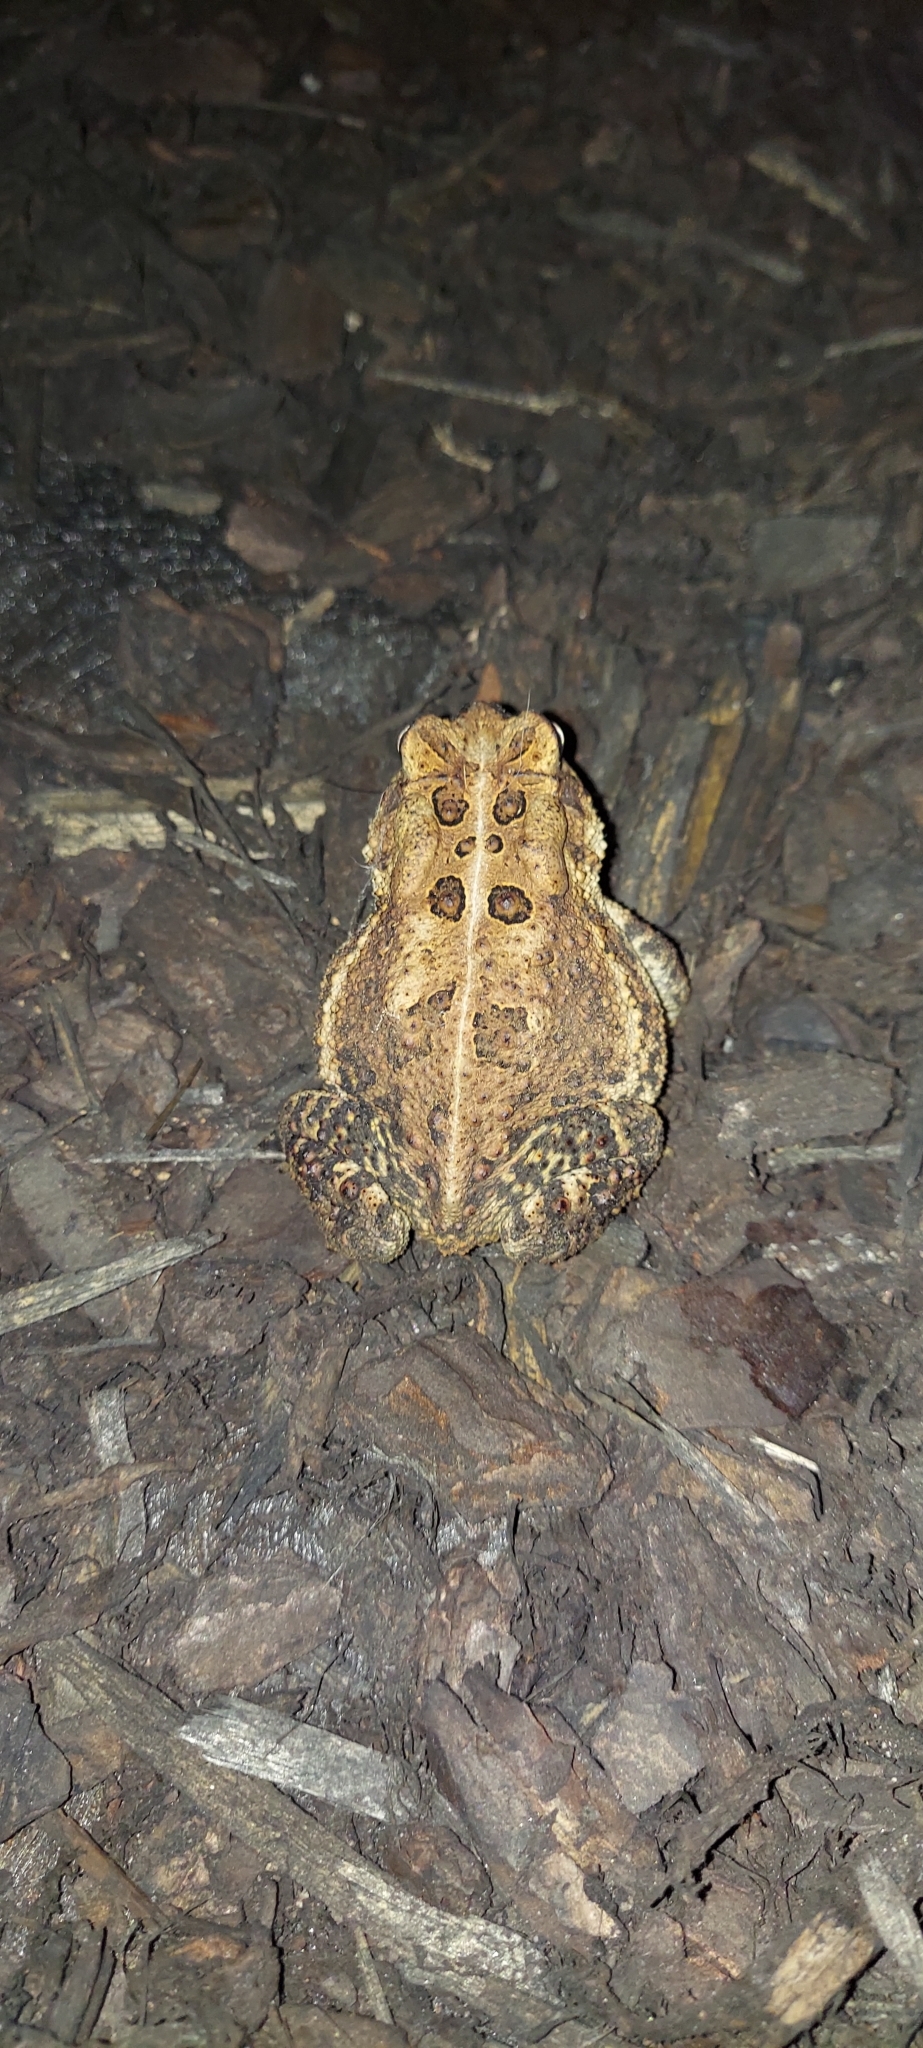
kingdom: Animalia
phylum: Chordata
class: Amphibia
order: Anura
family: Bufonidae
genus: Anaxyrus
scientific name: Anaxyrus americanus
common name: American toad
